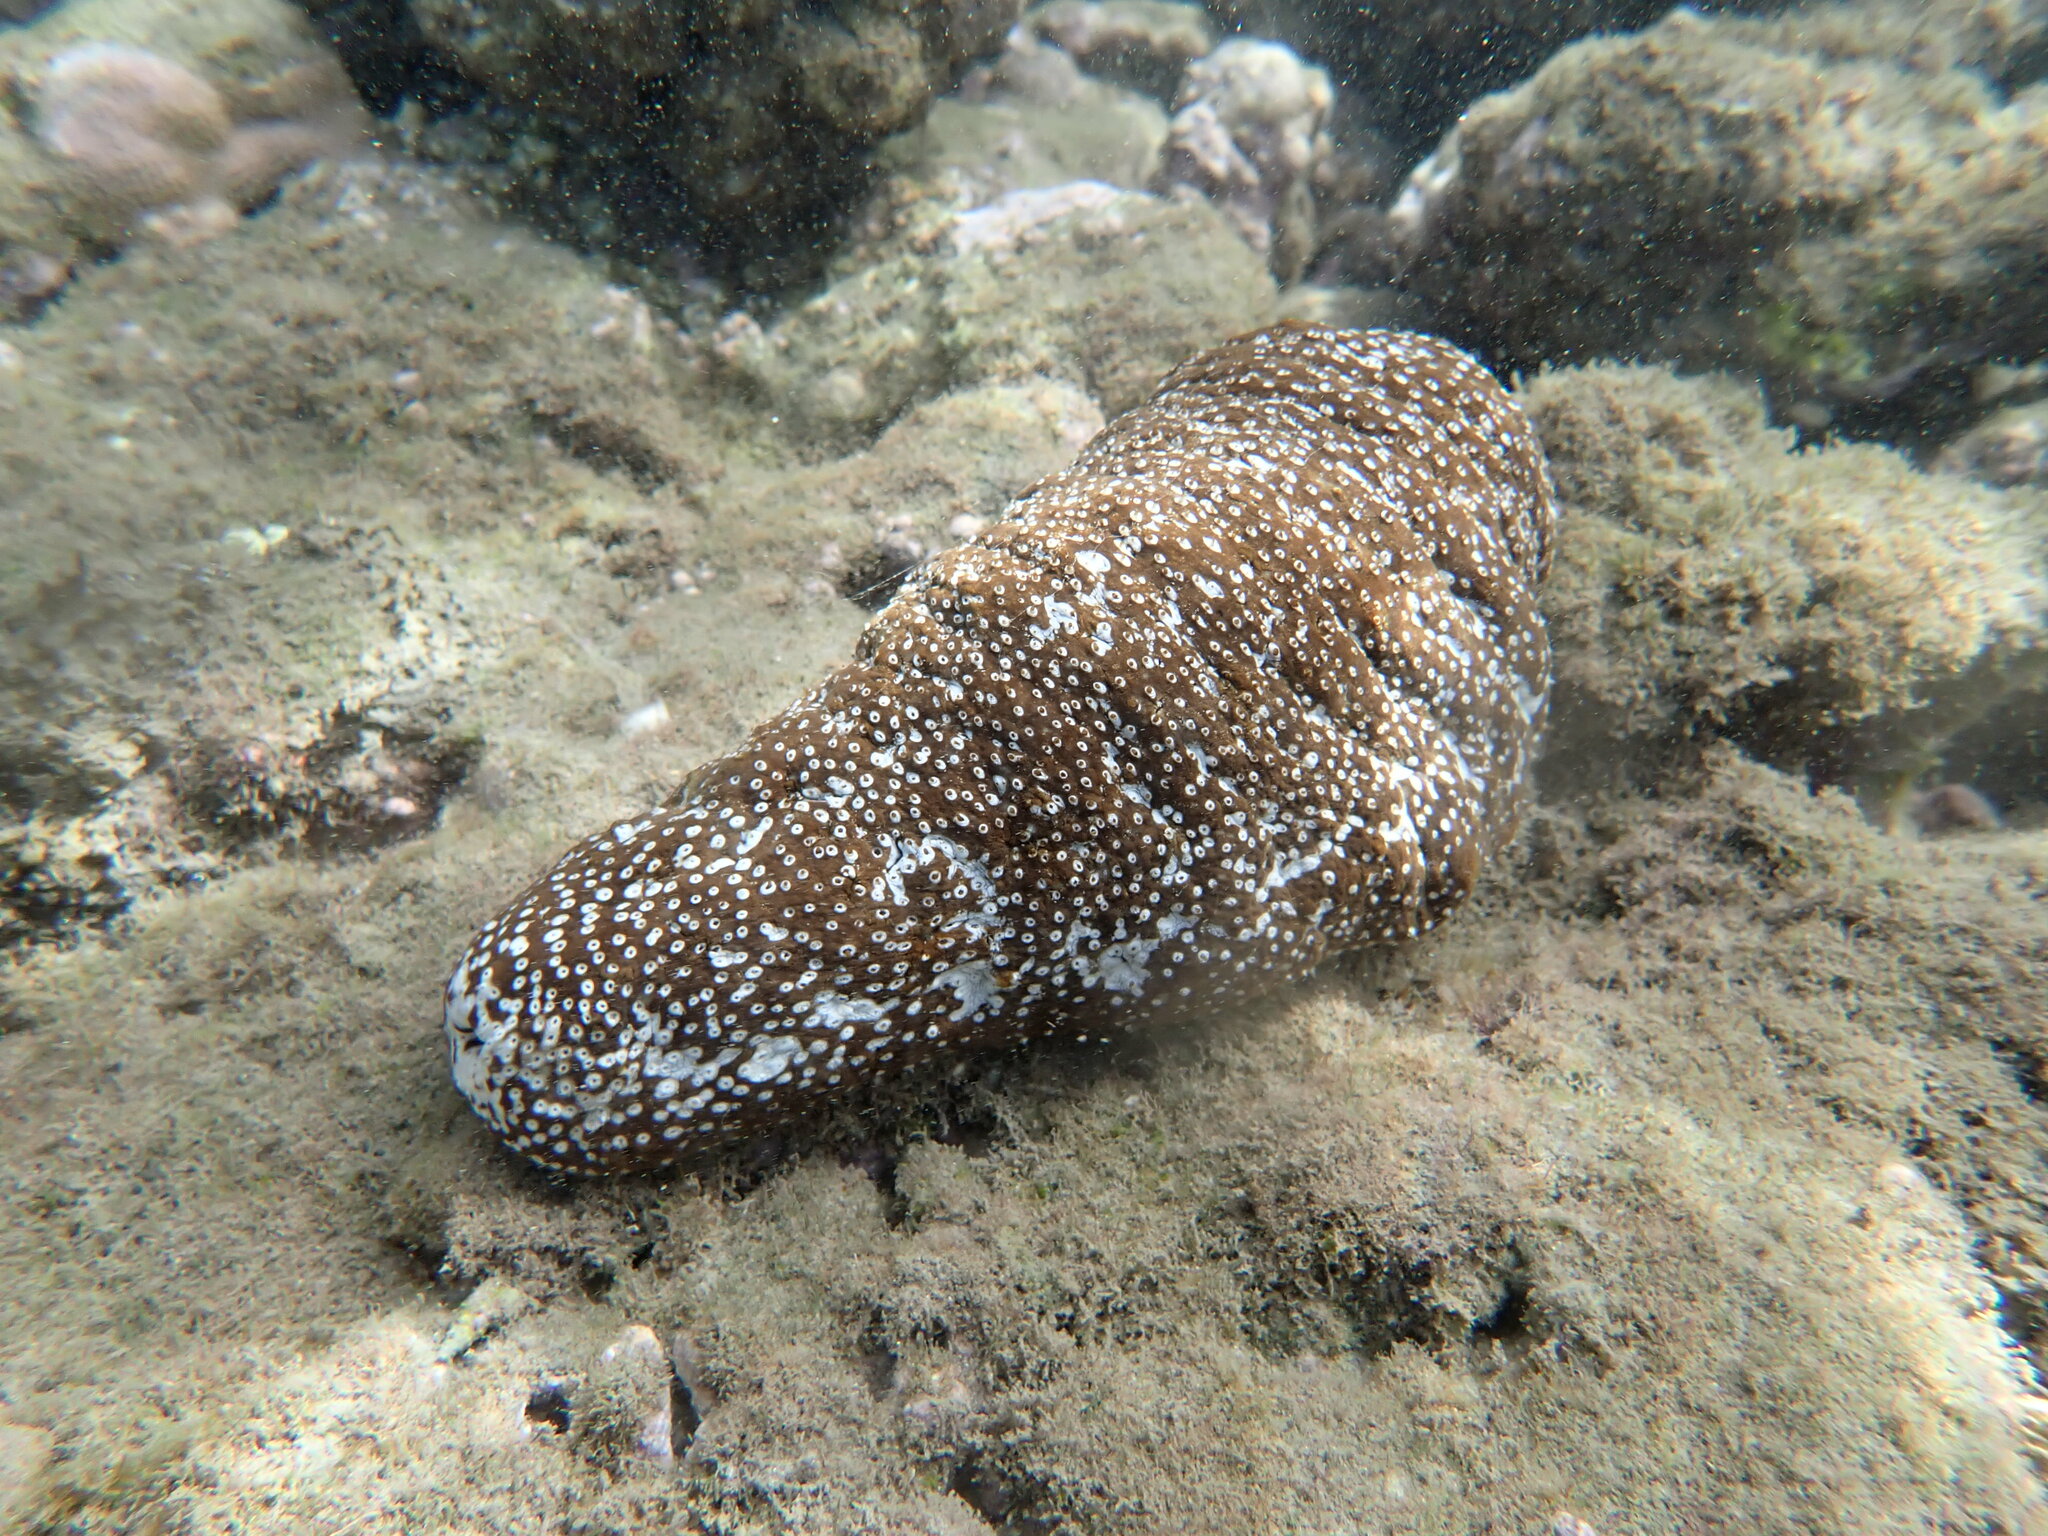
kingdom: Animalia
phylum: Echinodermata
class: Holothuroidea
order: Holothuriida
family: Holothuriidae
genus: Actinopyga
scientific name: Actinopyga varians
